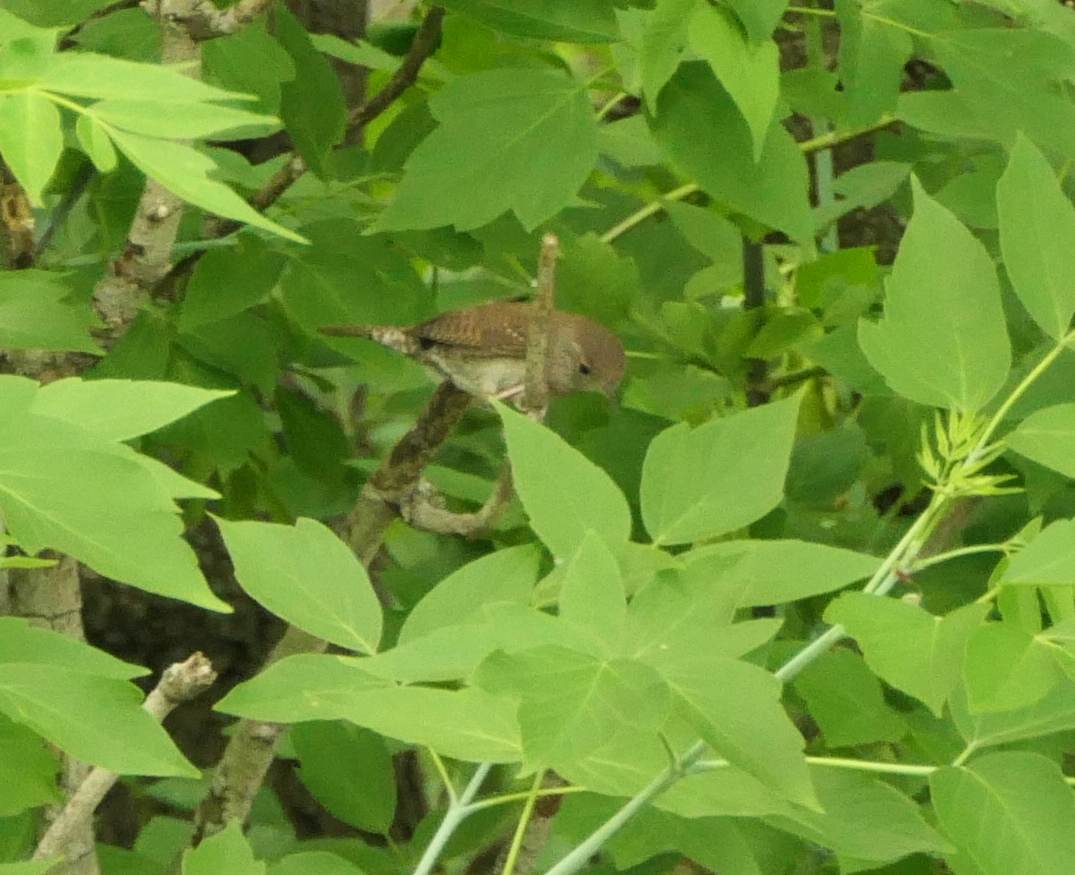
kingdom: Animalia
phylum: Chordata
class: Aves
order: Passeriformes
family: Troglodytidae
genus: Troglodytes
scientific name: Troglodytes aedon
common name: House wren
